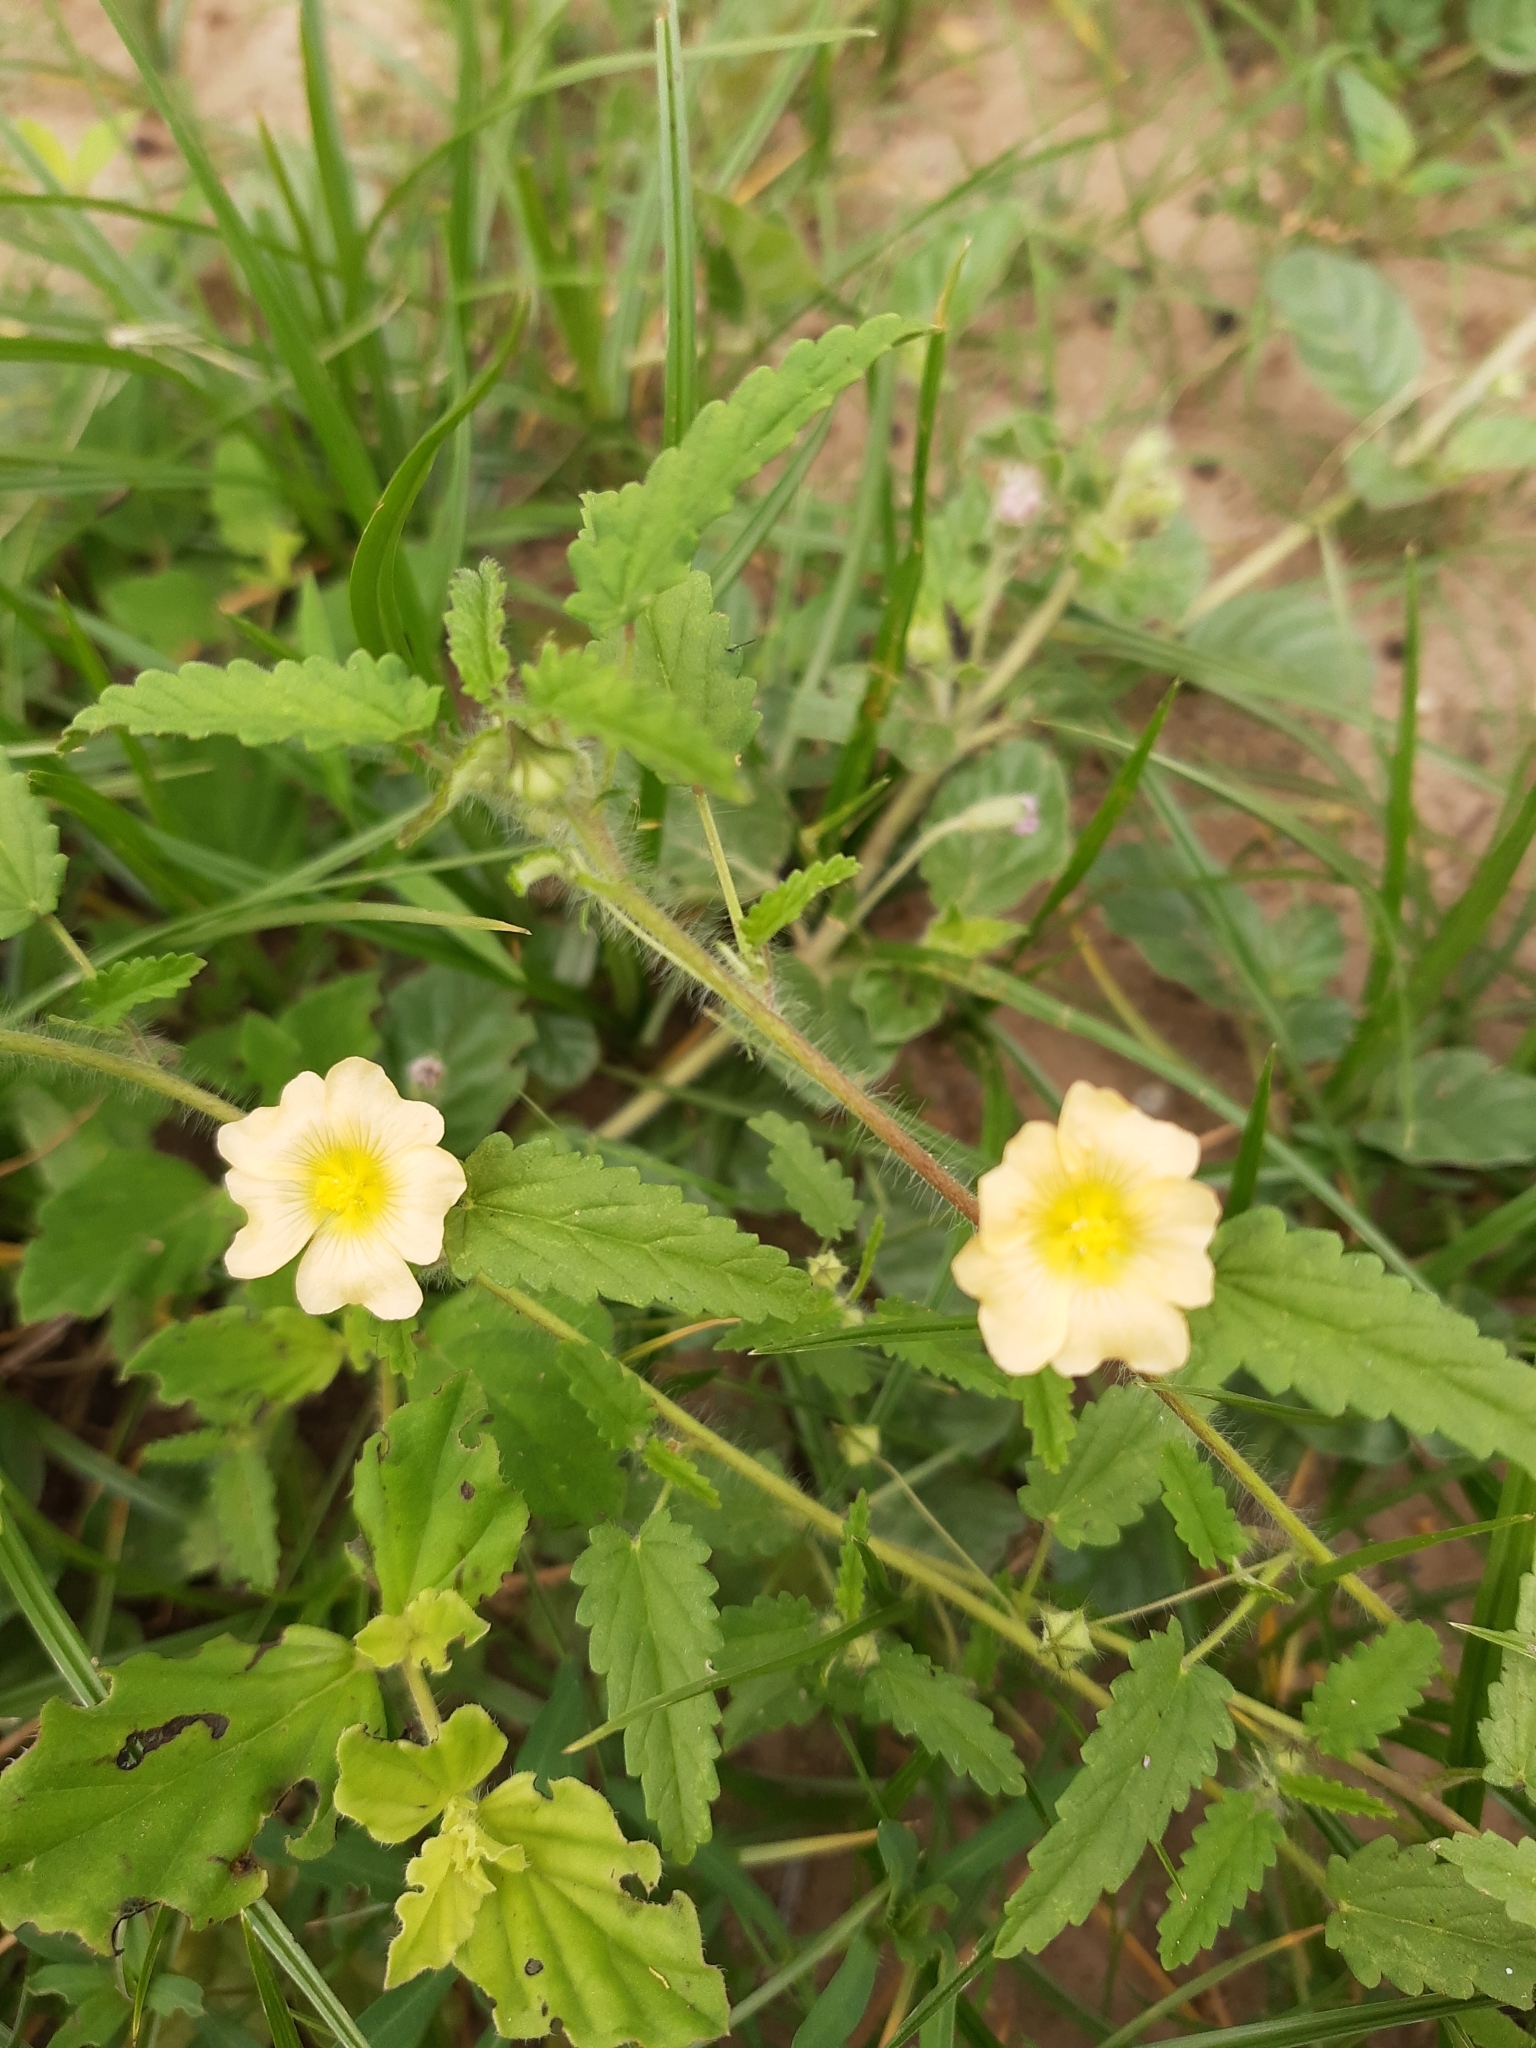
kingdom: Plantae
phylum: Tracheophyta
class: Magnoliopsida
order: Malvales
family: Malvaceae
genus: Sida
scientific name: Sida abutilifolia
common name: Spreading fanpetals
